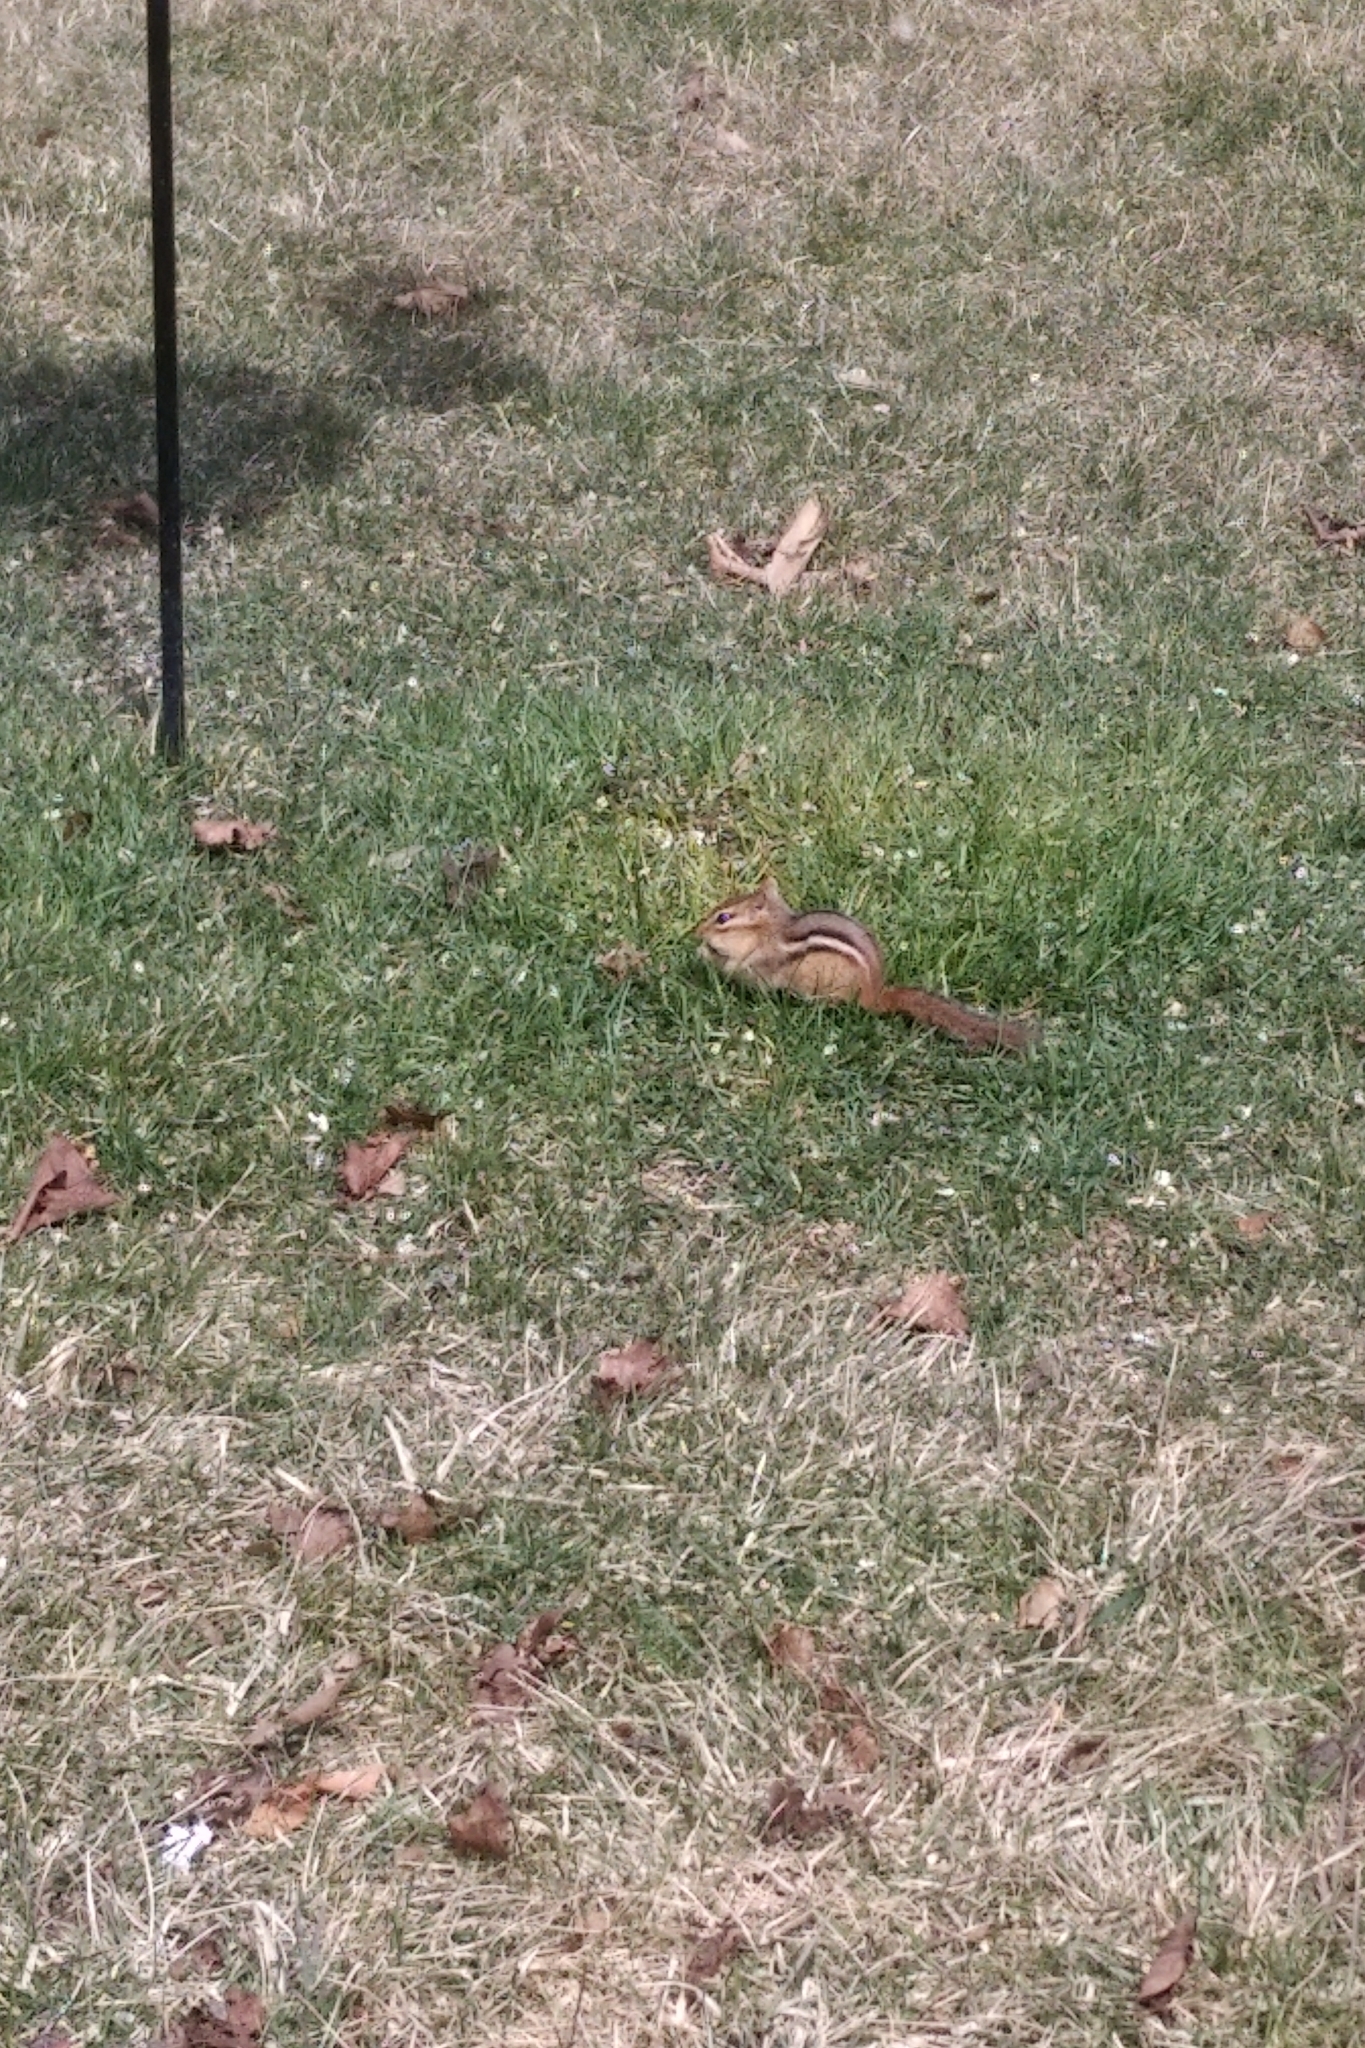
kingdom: Animalia
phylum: Chordata
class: Mammalia
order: Rodentia
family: Sciuridae
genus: Tamias
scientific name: Tamias striatus
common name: Eastern chipmunk
